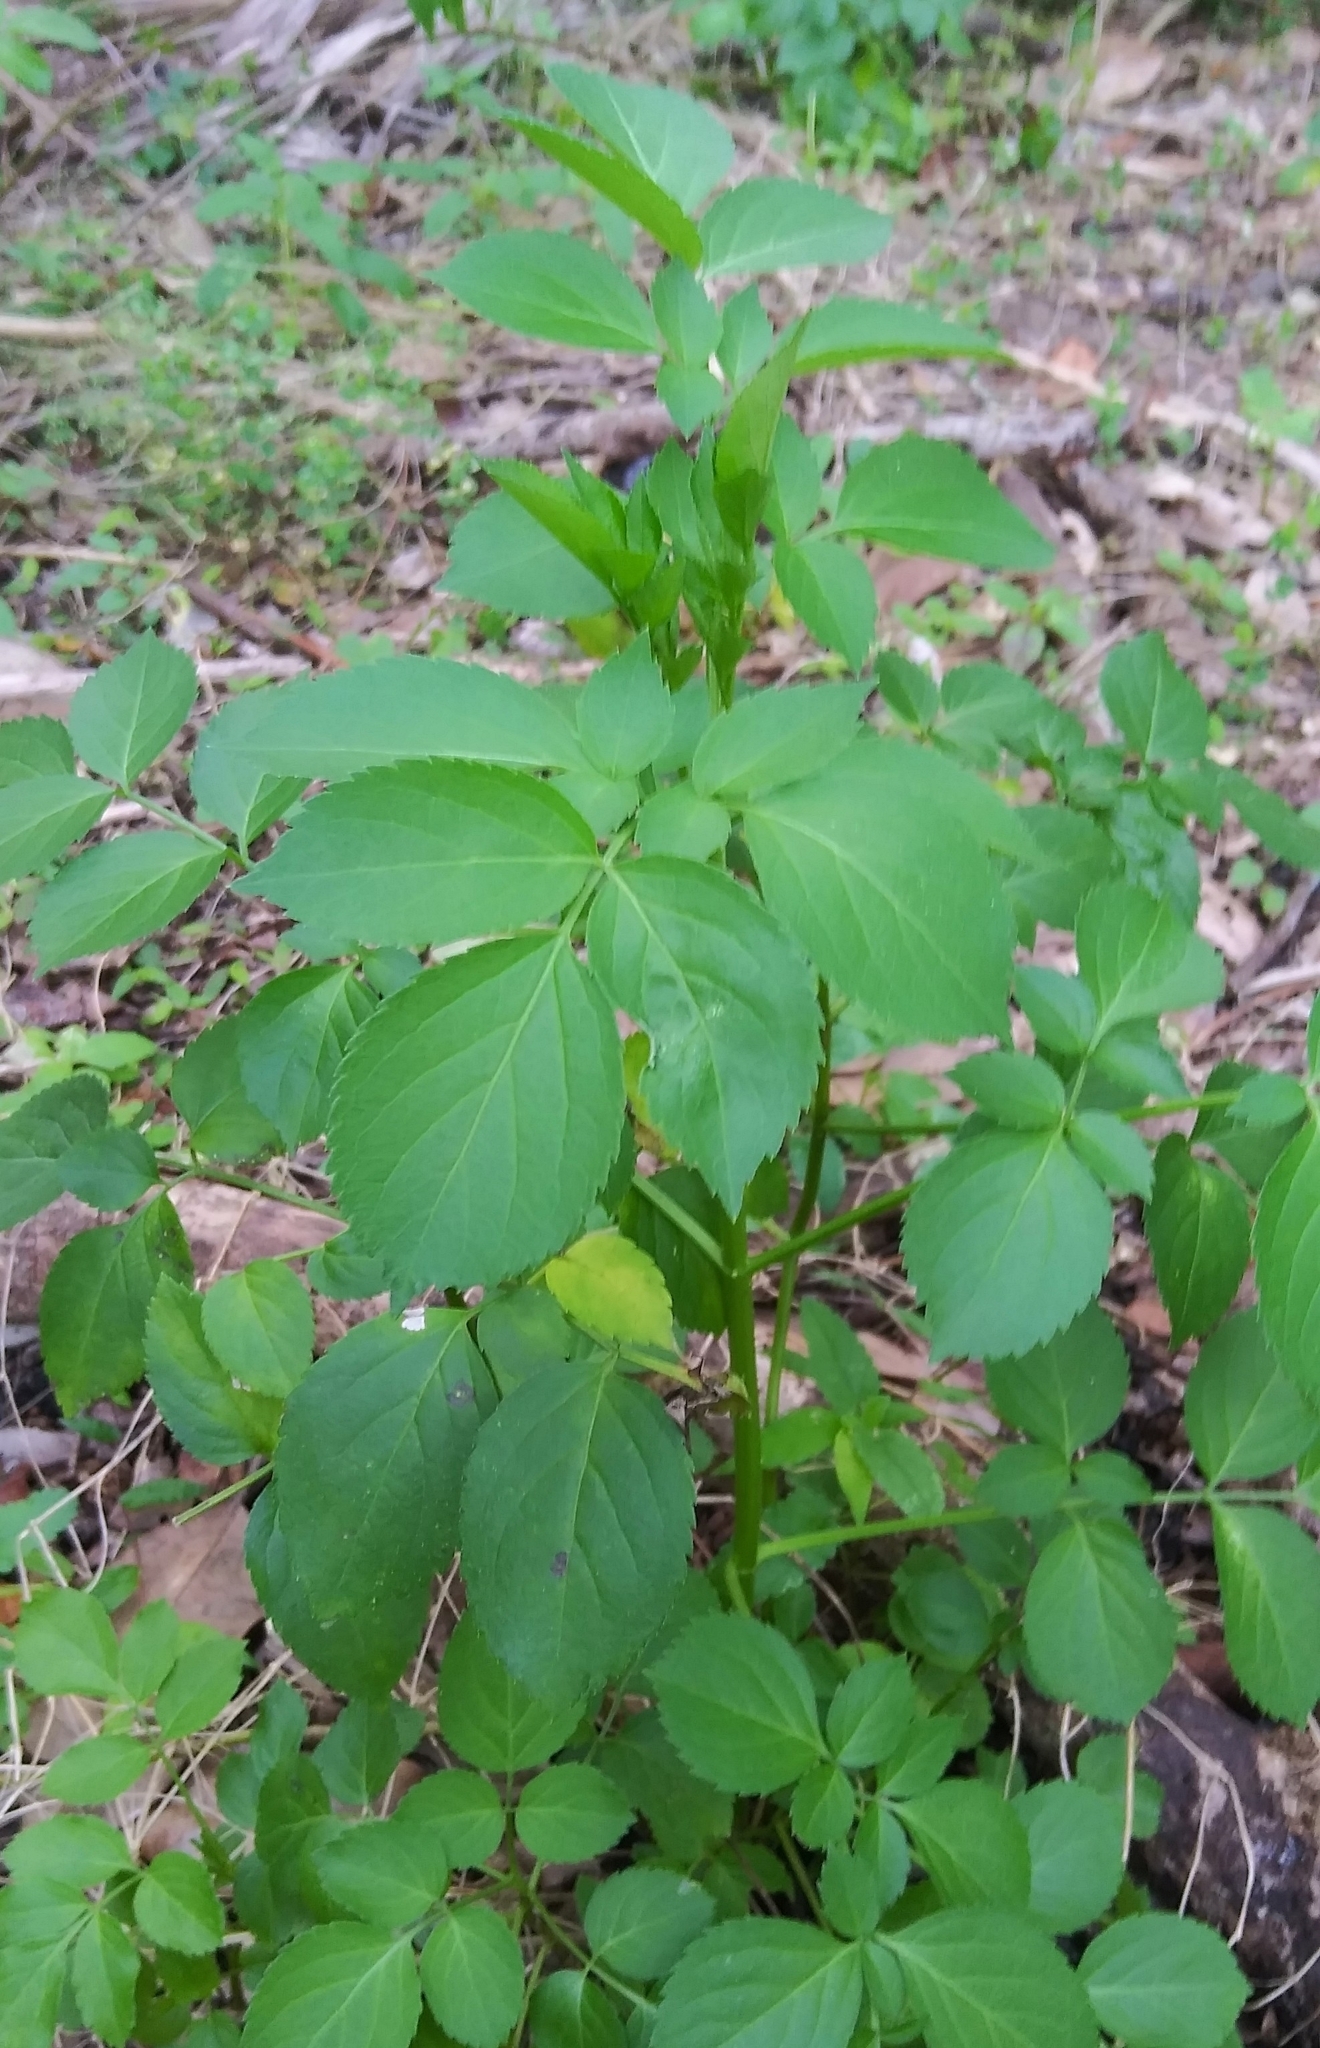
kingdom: Plantae
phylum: Tracheophyta
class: Magnoliopsida
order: Dipsacales
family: Viburnaceae
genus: Sambucus
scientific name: Sambucus canadensis
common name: American elder
